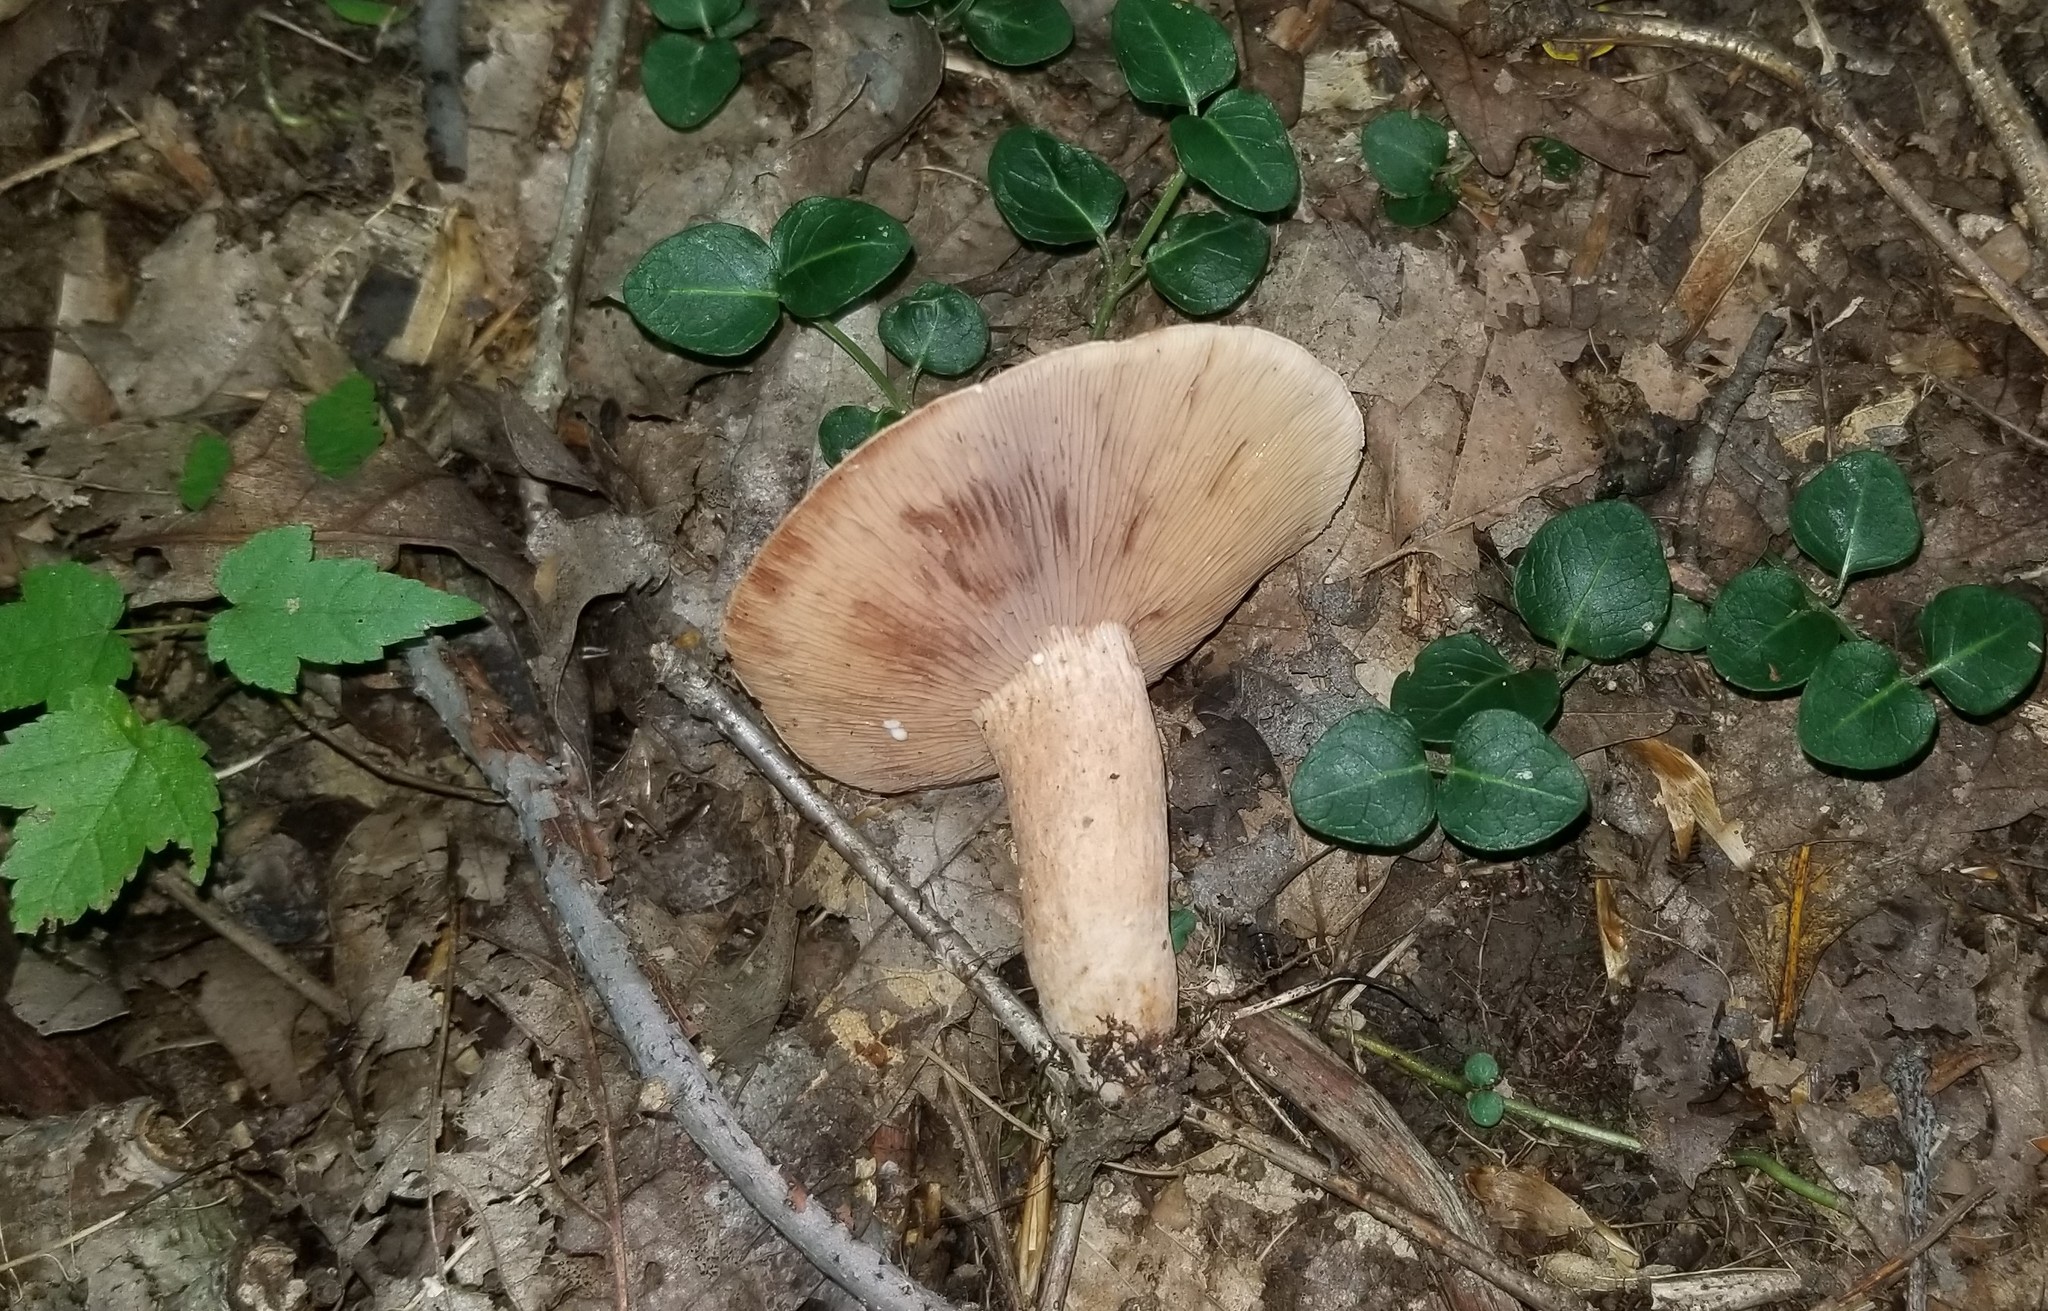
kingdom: Fungi
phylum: Basidiomycota
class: Agaricomycetes
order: Russulales
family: Russulaceae
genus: Lactarius
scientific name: Lactarius peckii
